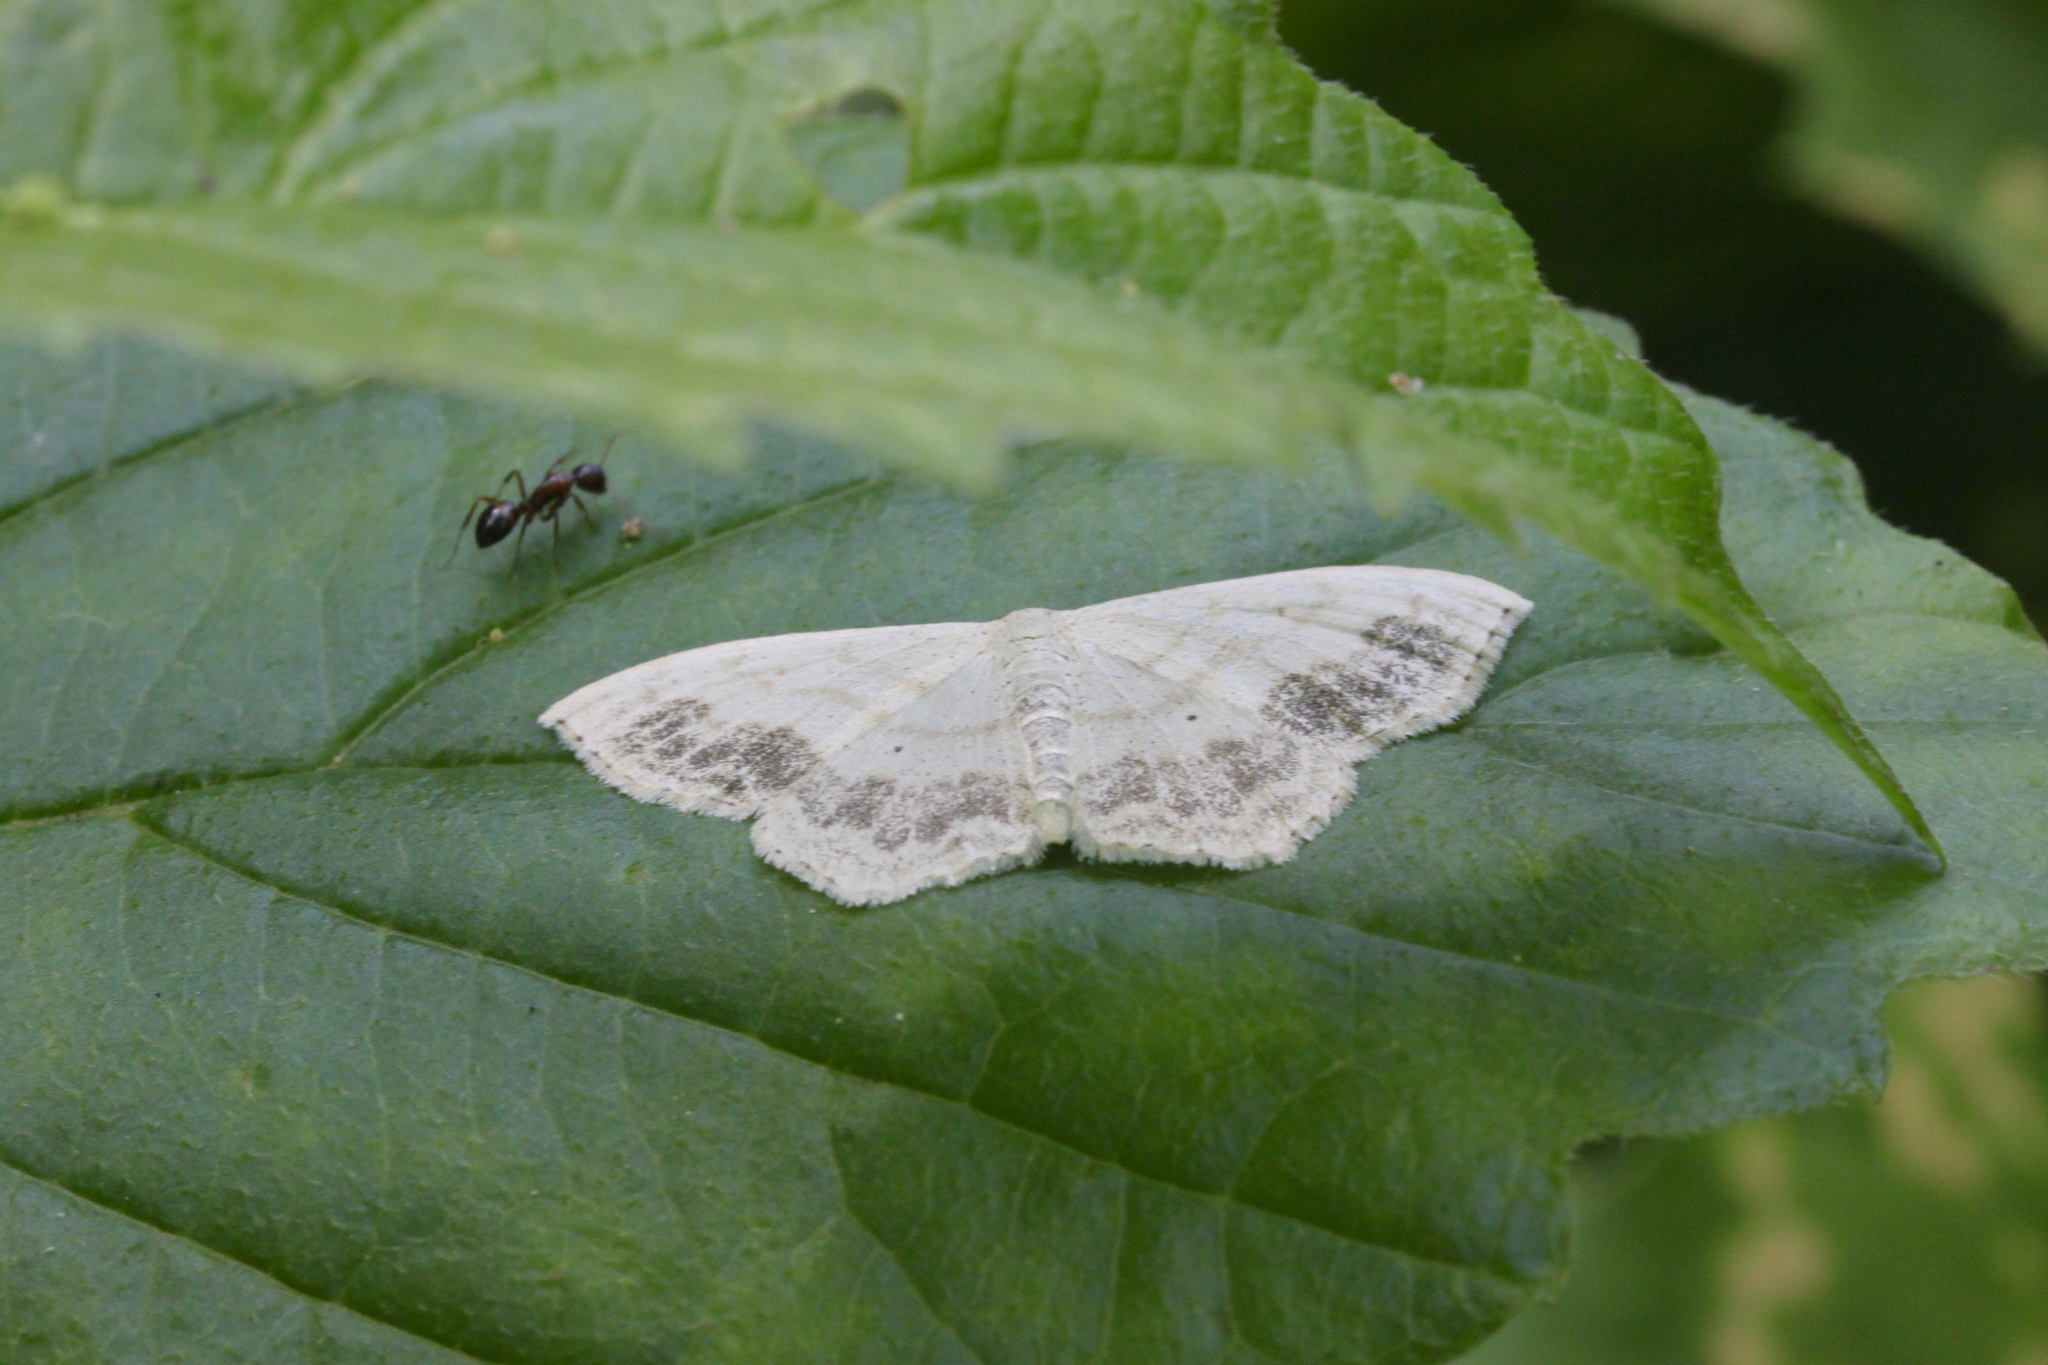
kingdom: Animalia
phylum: Arthropoda
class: Insecta
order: Lepidoptera
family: Geometridae
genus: Scopula
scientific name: Scopula limboundata
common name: Large lace border
